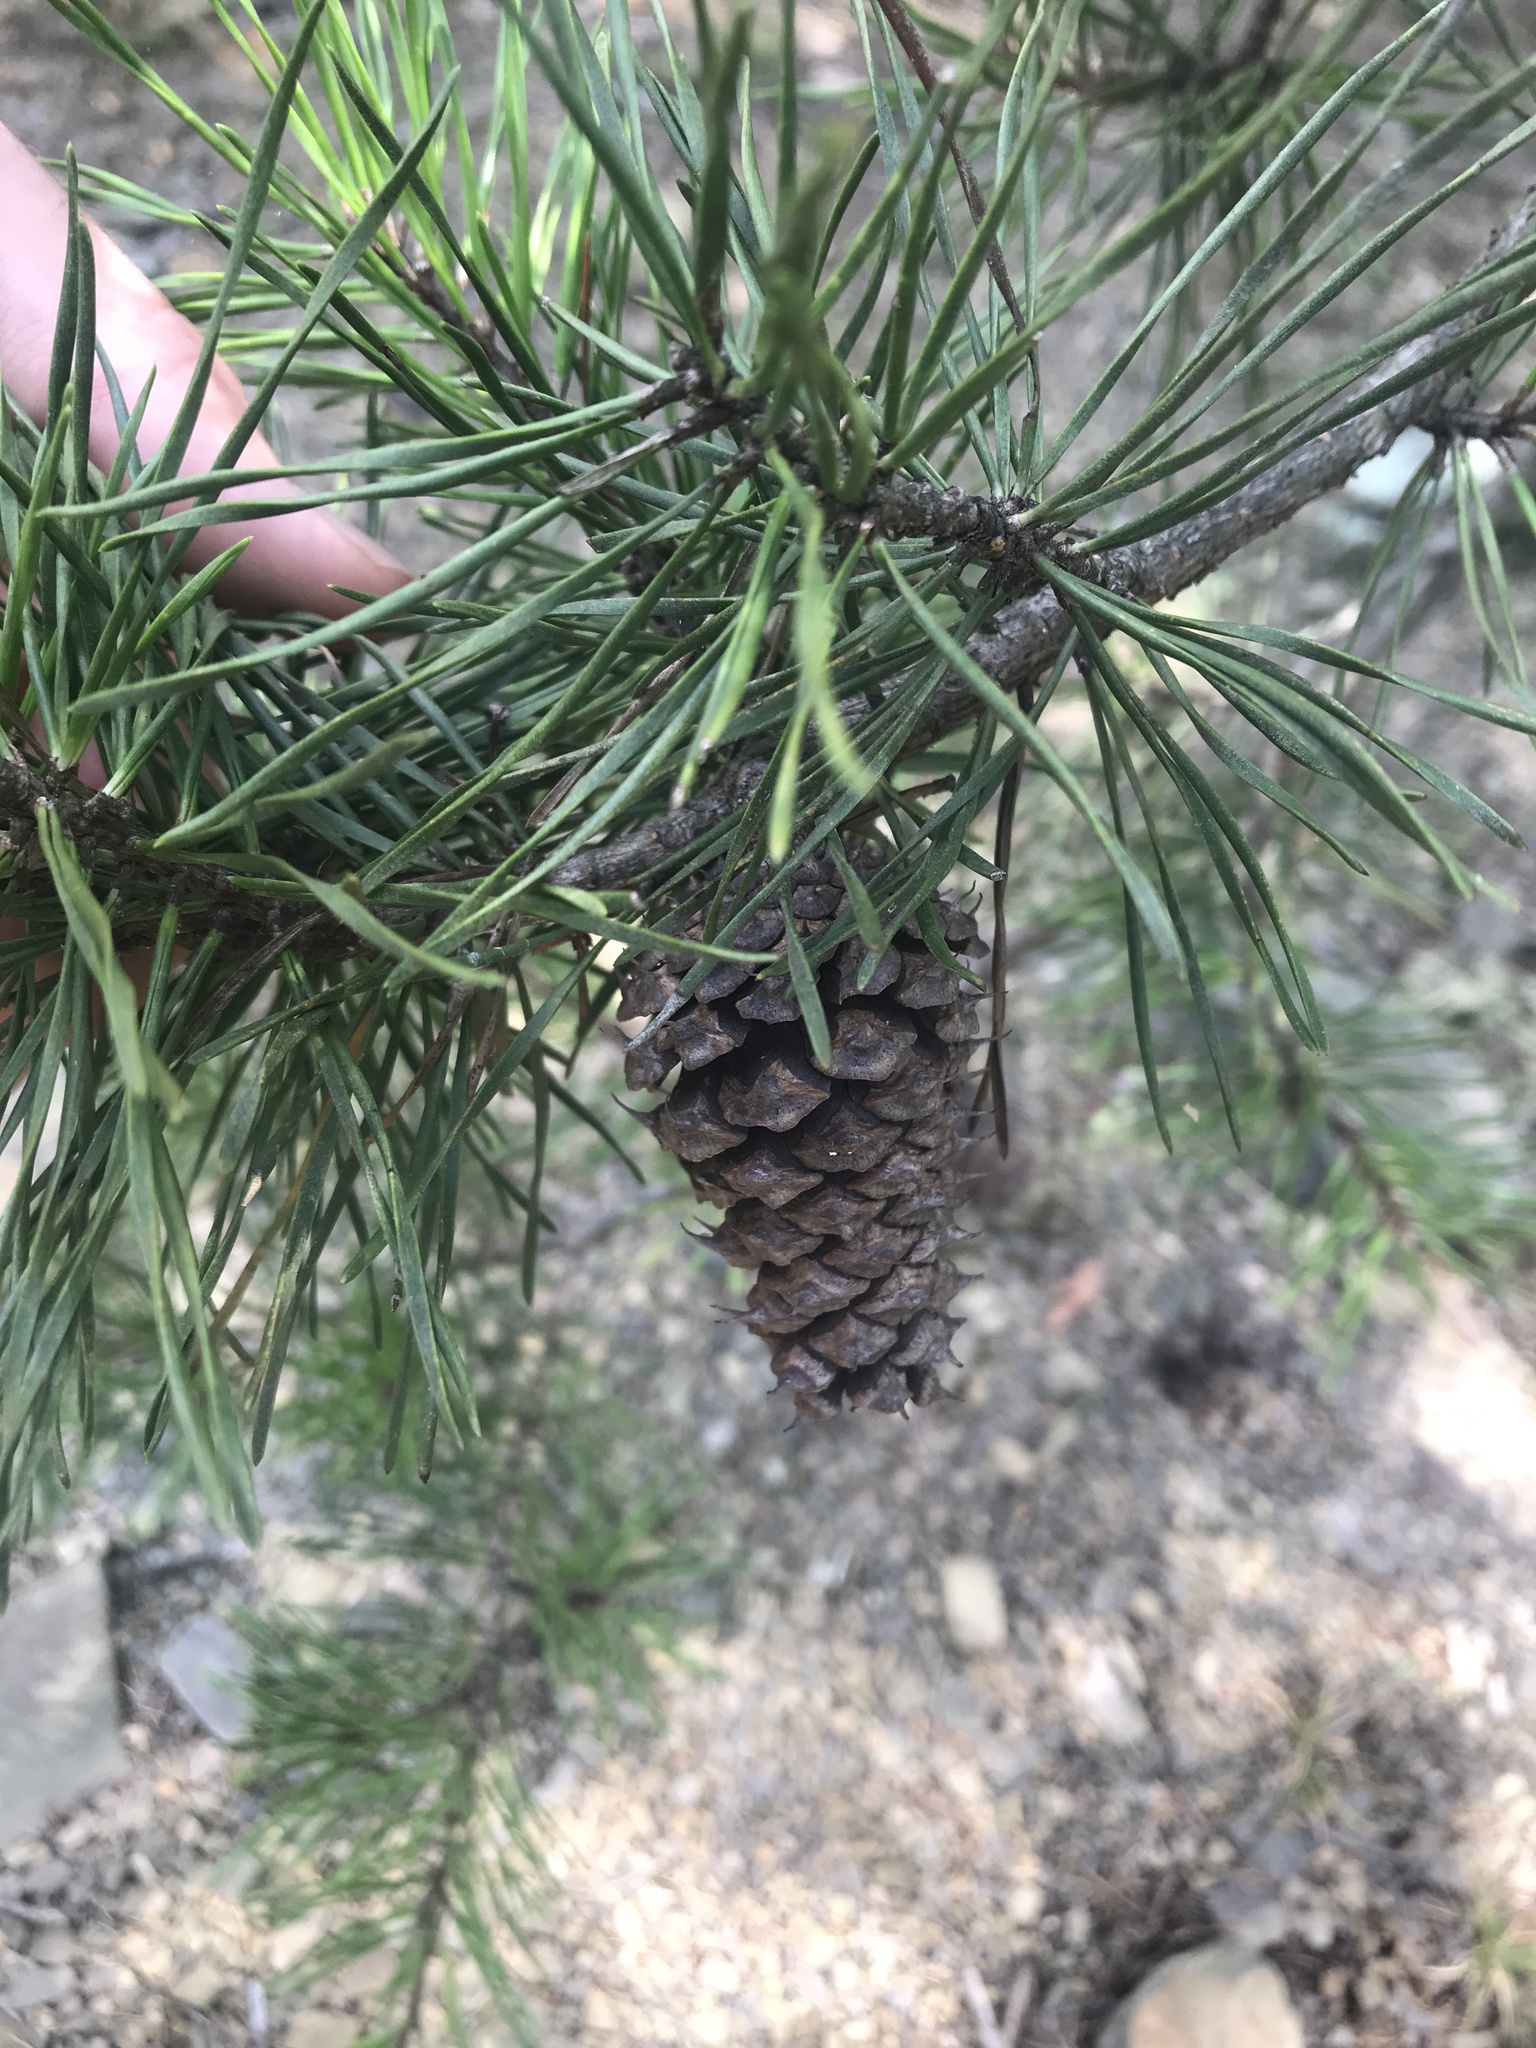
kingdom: Plantae
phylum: Tracheophyta
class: Pinopsida
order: Pinales
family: Pinaceae
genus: Pinus
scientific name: Pinus virginiana
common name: Scrub pine
